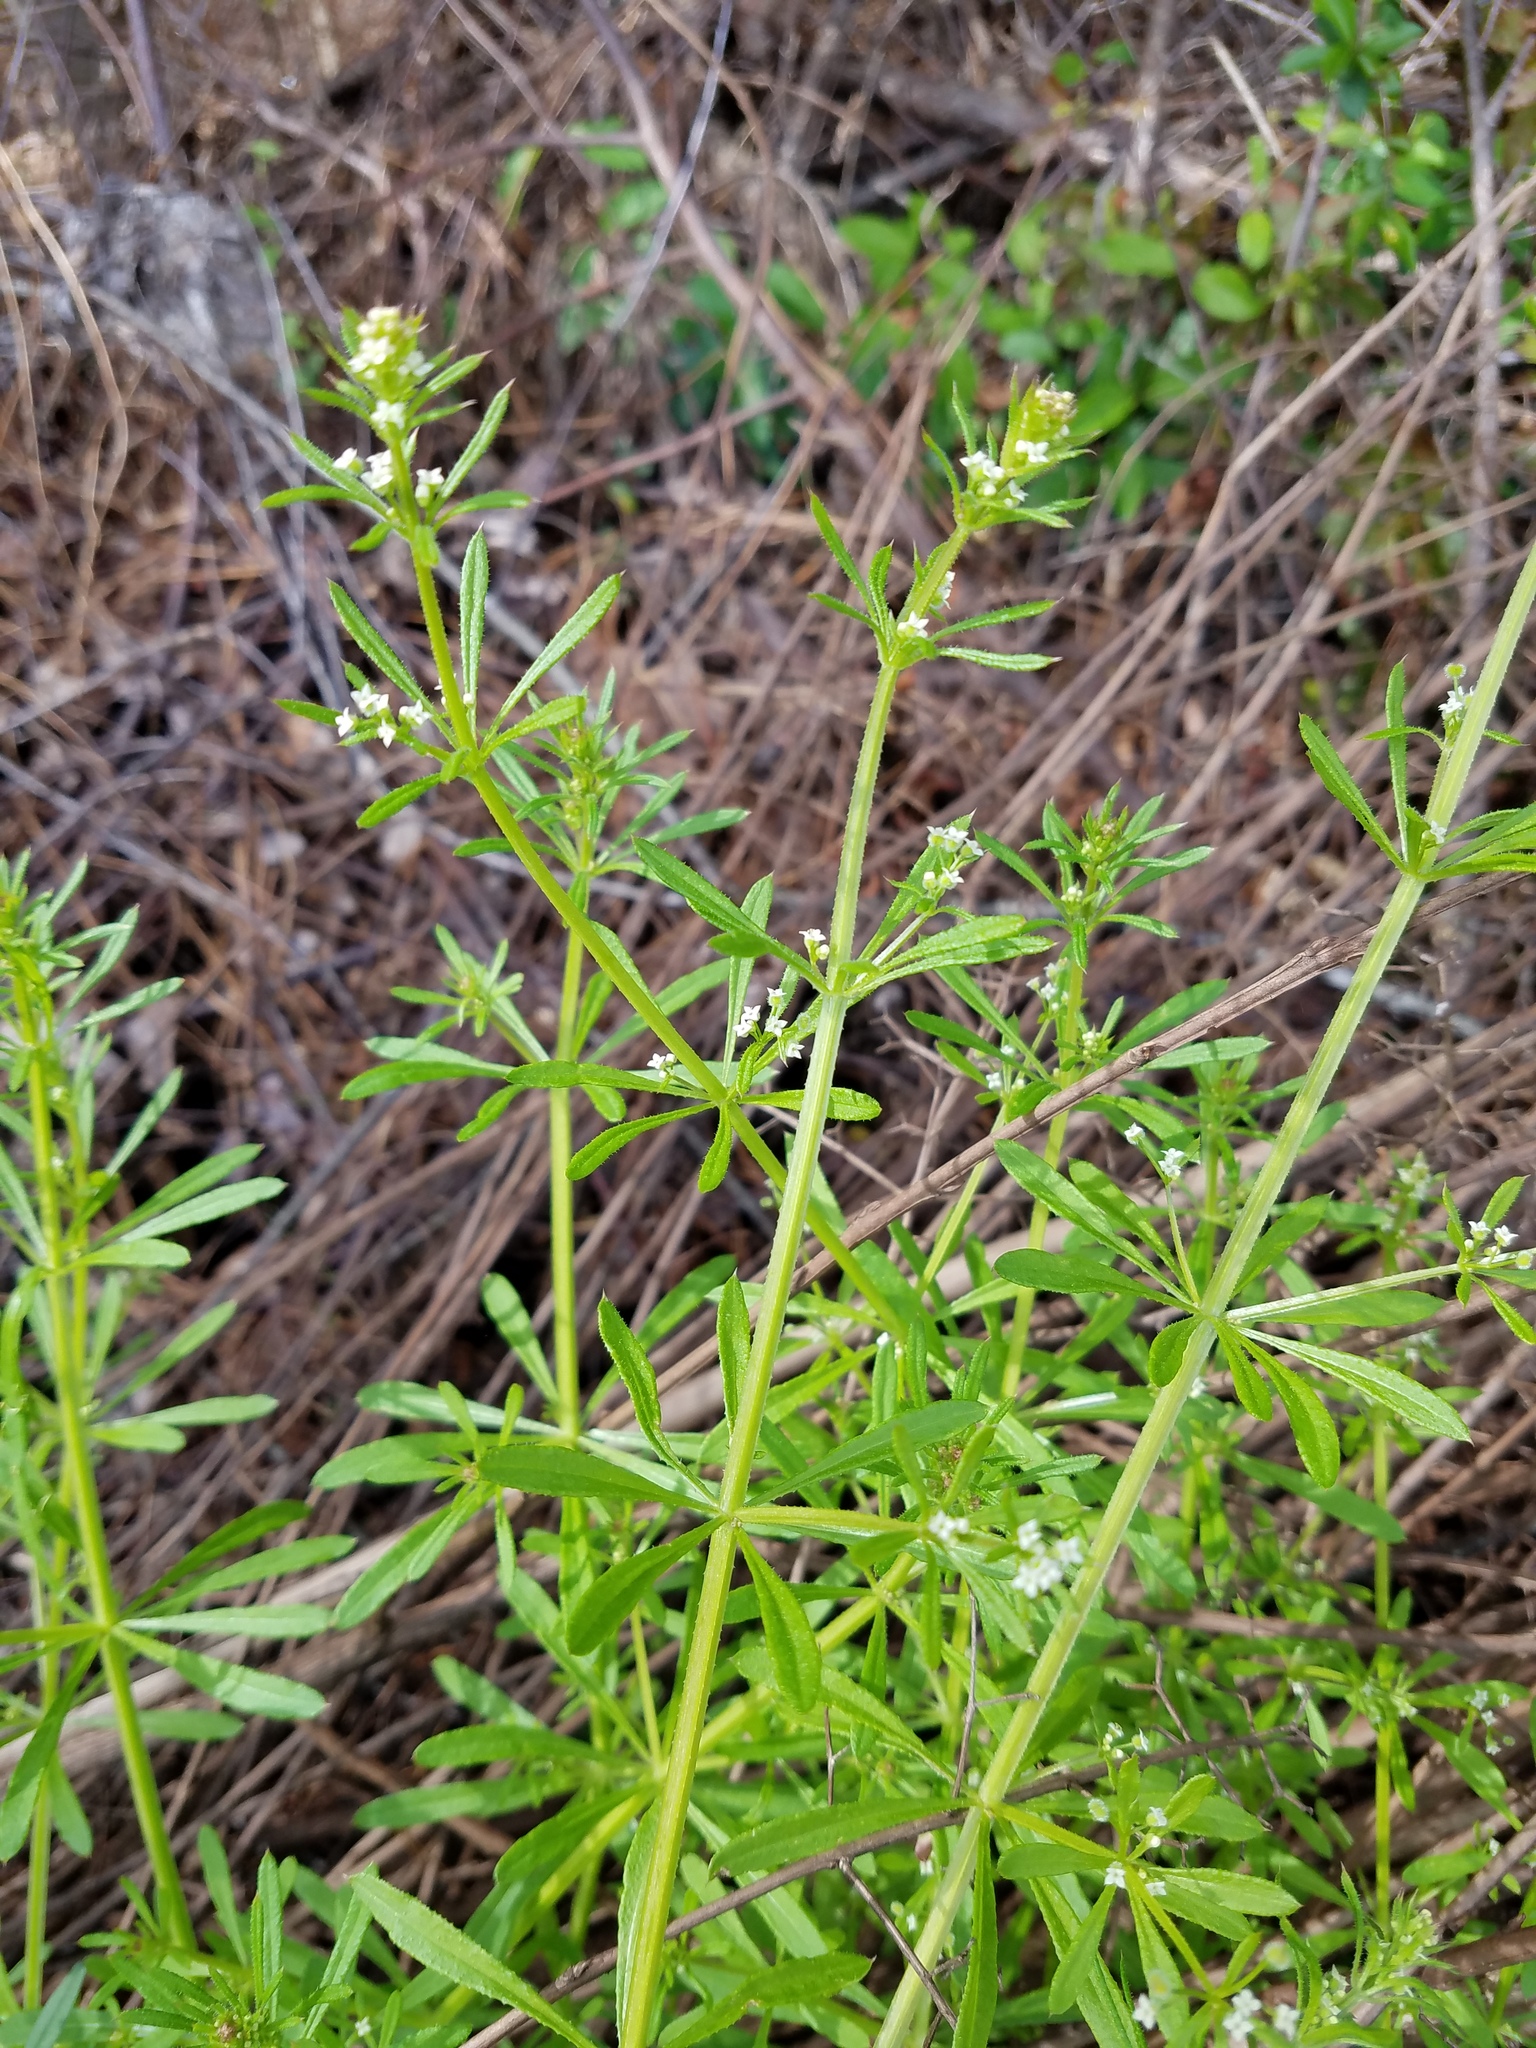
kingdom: Plantae
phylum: Tracheophyta
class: Magnoliopsida
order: Gentianales
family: Rubiaceae
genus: Galium
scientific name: Galium aparine
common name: Cleavers
